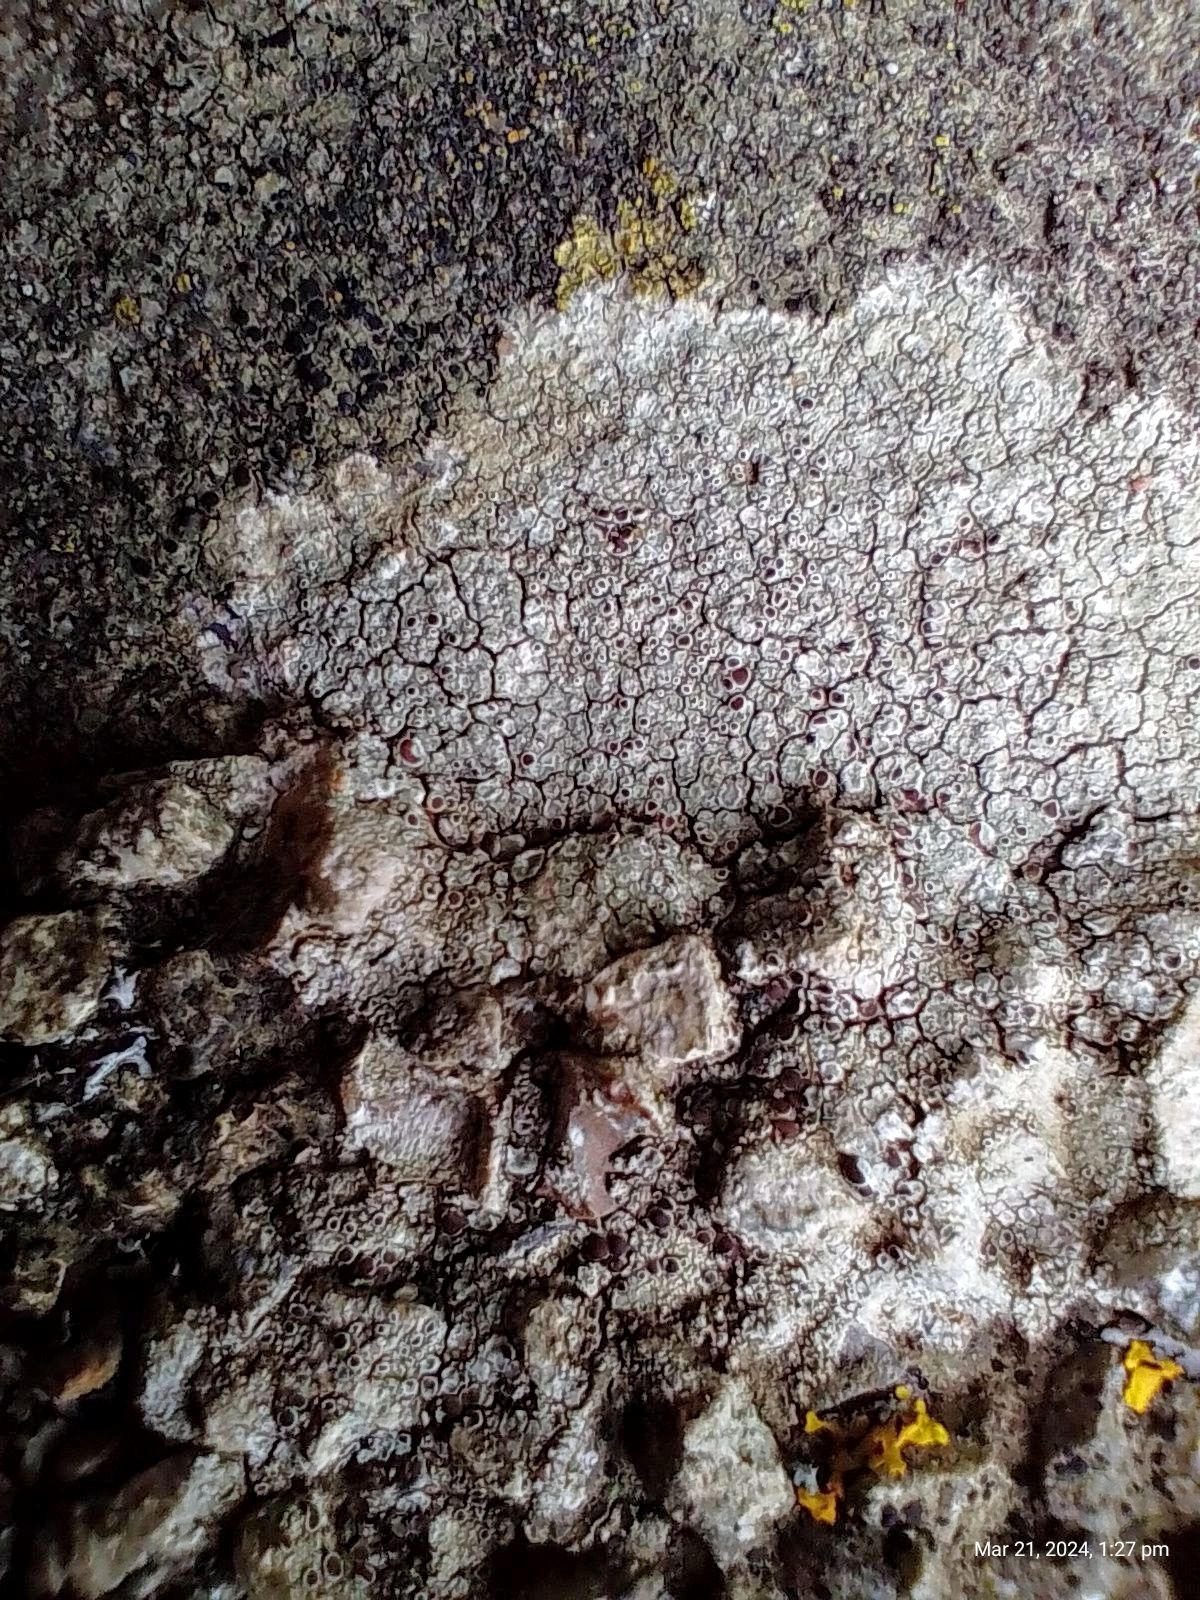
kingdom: Fungi
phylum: Ascomycota
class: Lecanoromycetes
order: Lecanorales
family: Lecanoraceae
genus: Lecanora
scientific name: Lecanora campestris
